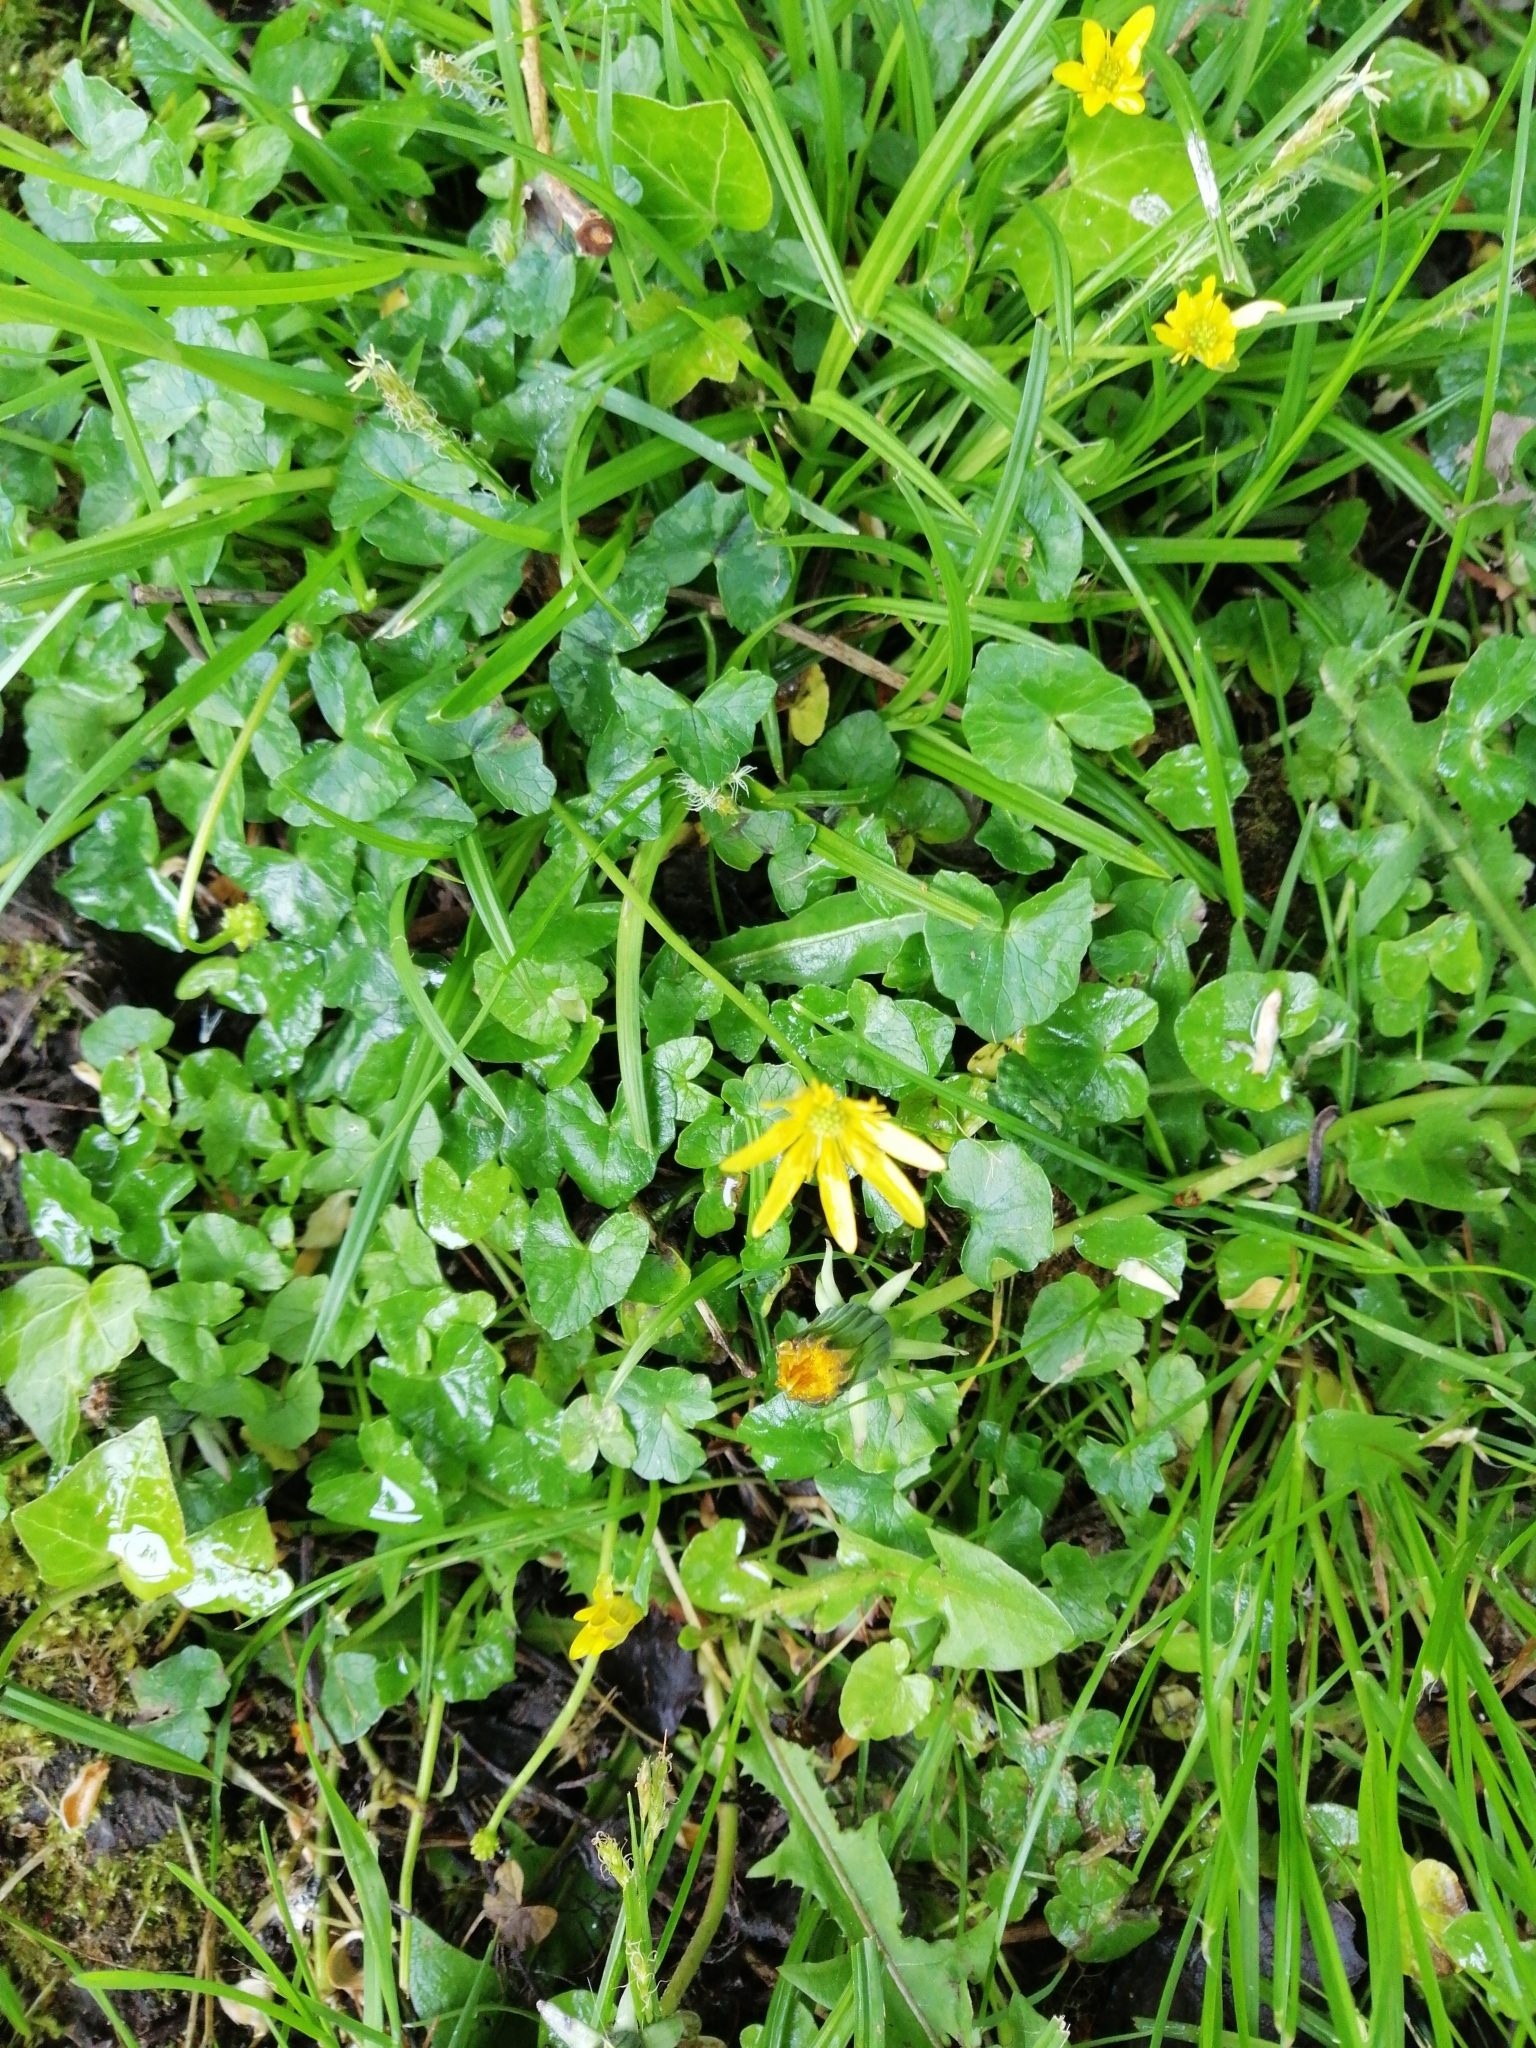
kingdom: Plantae
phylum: Tracheophyta
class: Magnoliopsida
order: Ranunculales
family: Ranunculaceae
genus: Ficaria
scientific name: Ficaria verna
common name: Lesser celandine
